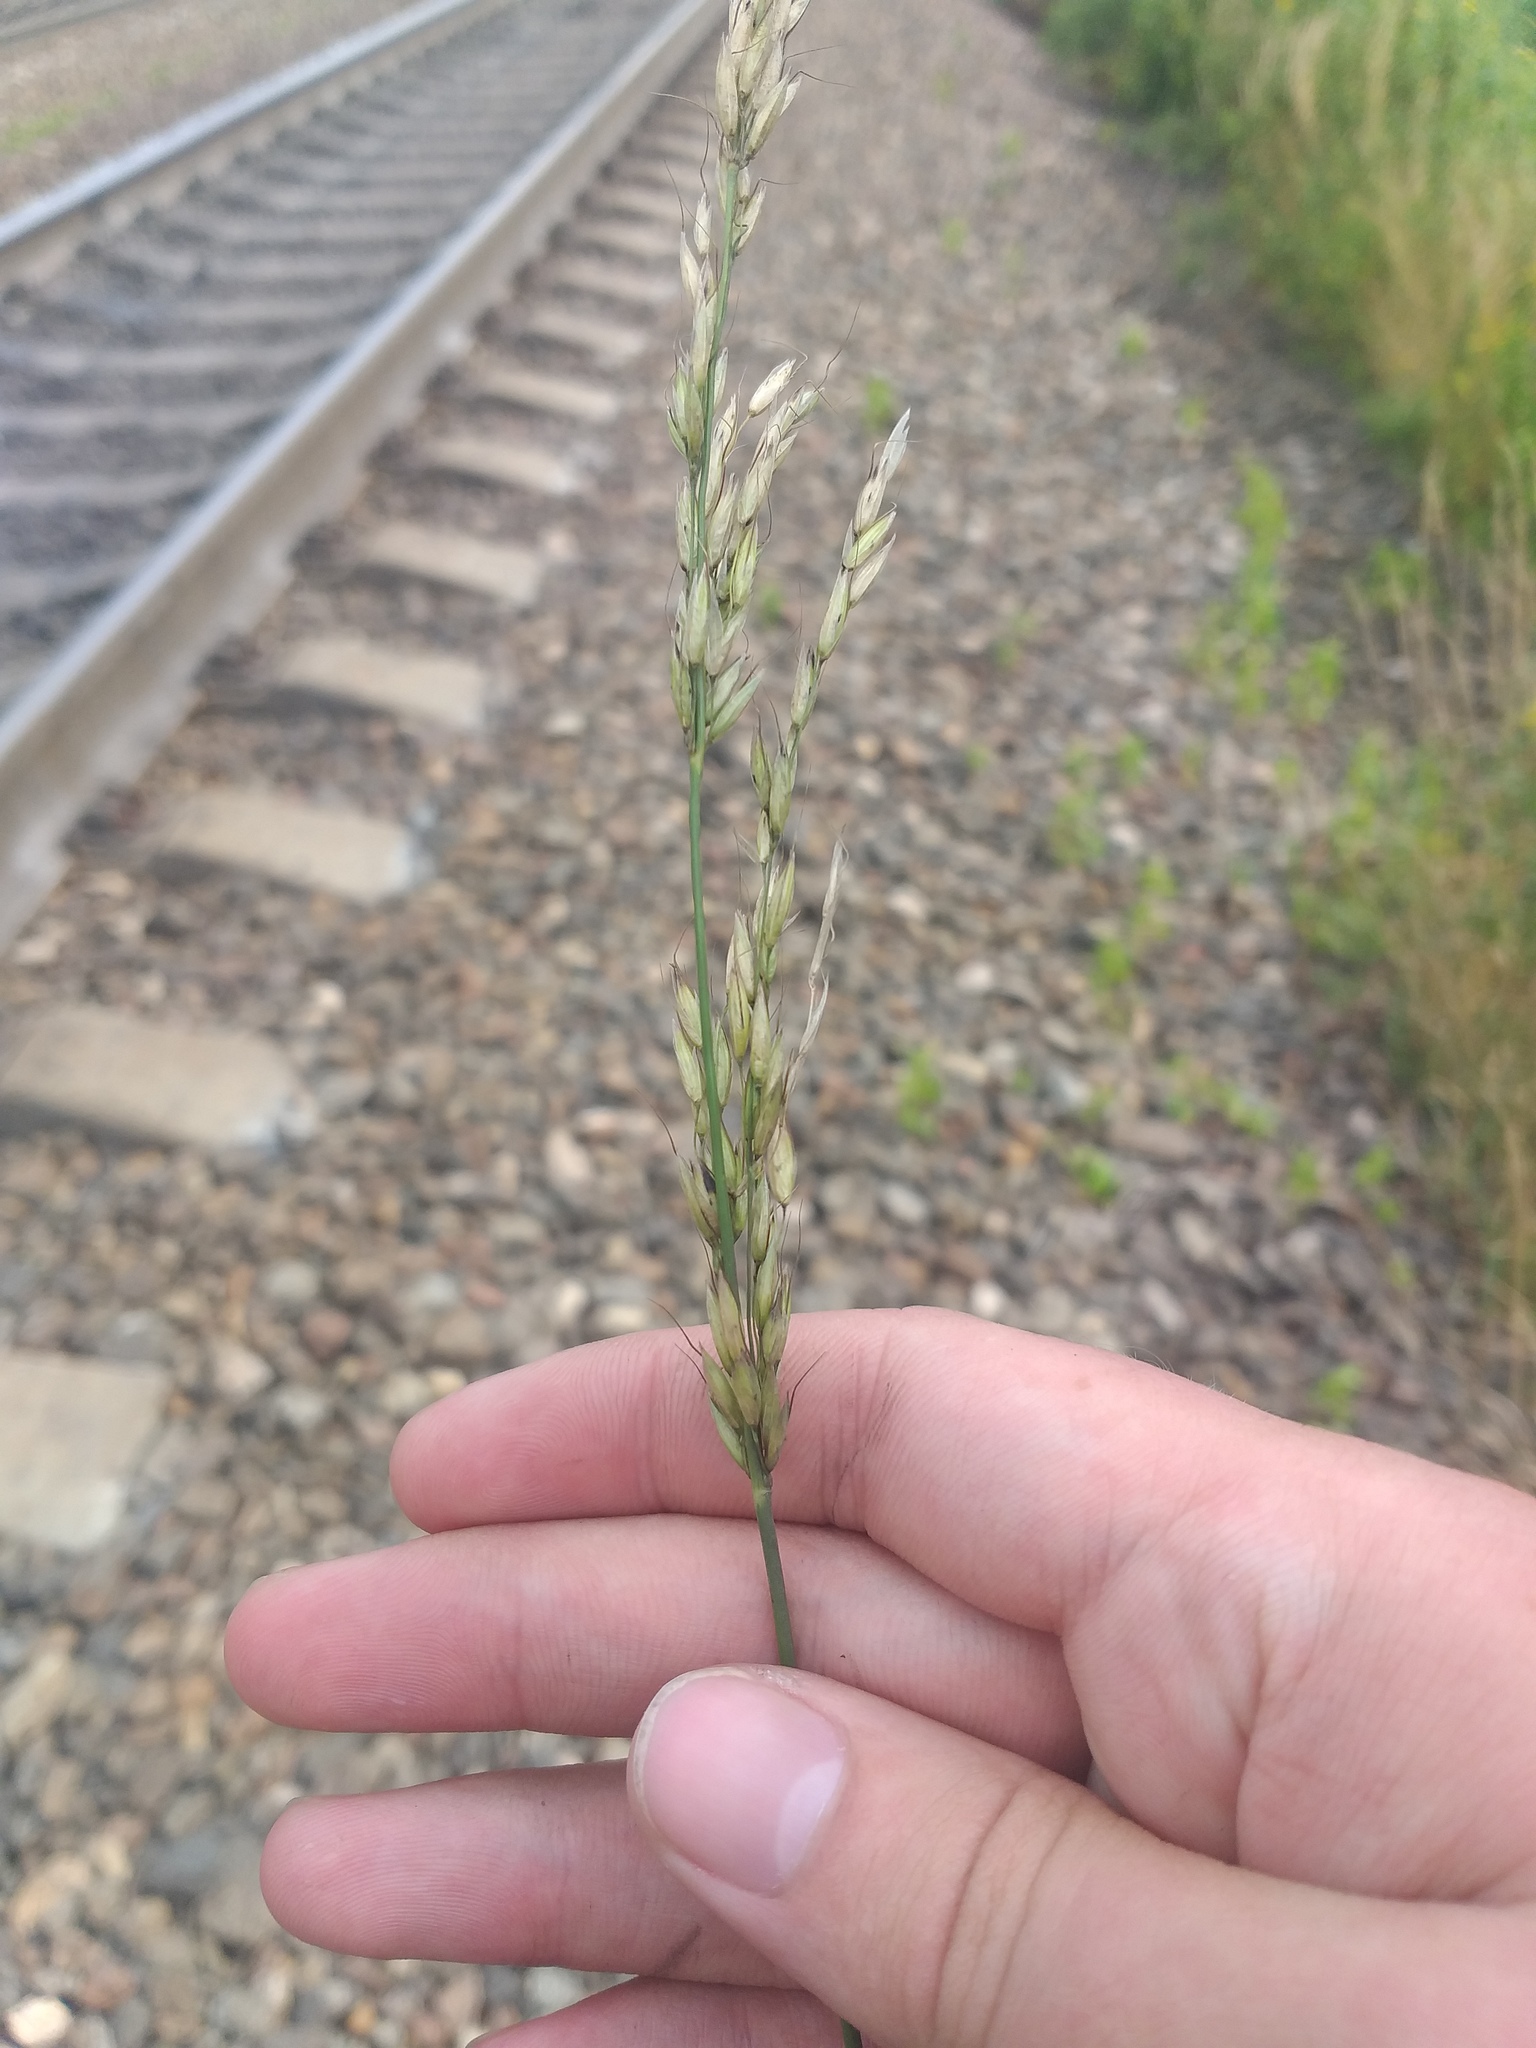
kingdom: Plantae
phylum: Tracheophyta
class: Liliopsida
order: Poales
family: Poaceae
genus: Arrhenatherum
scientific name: Arrhenatherum elatius
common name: Tall oatgrass
